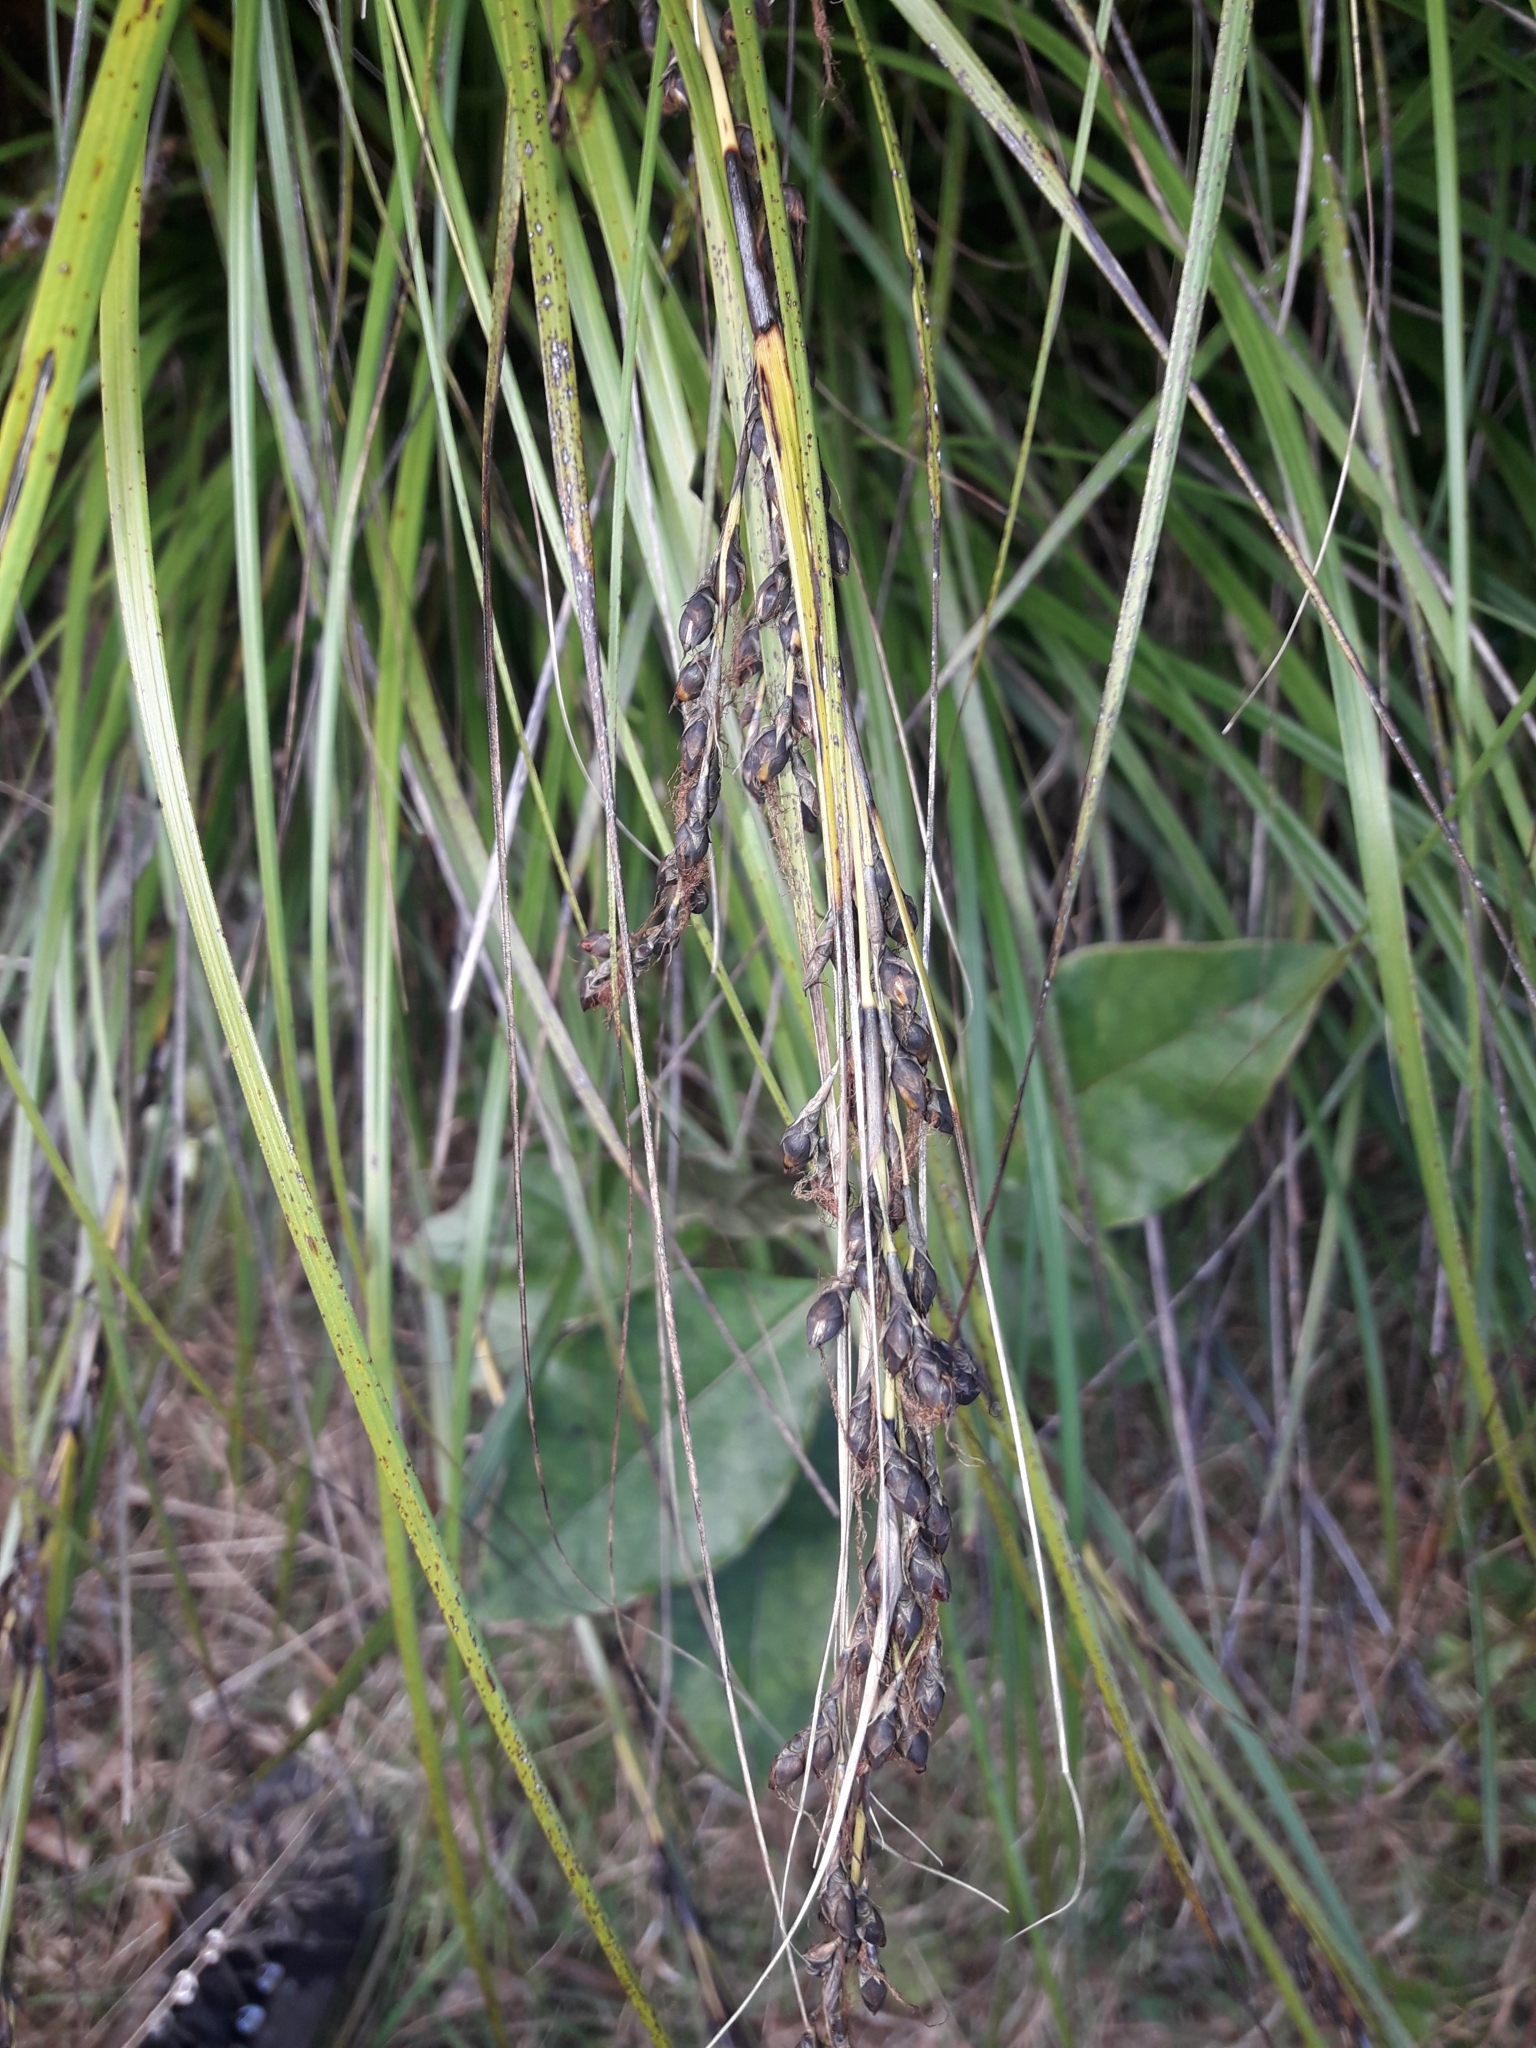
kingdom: Plantae
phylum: Tracheophyta
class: Liliopsida
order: Poales
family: Cyperaceae
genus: Gahnia
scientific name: Gahnia pauciflora
